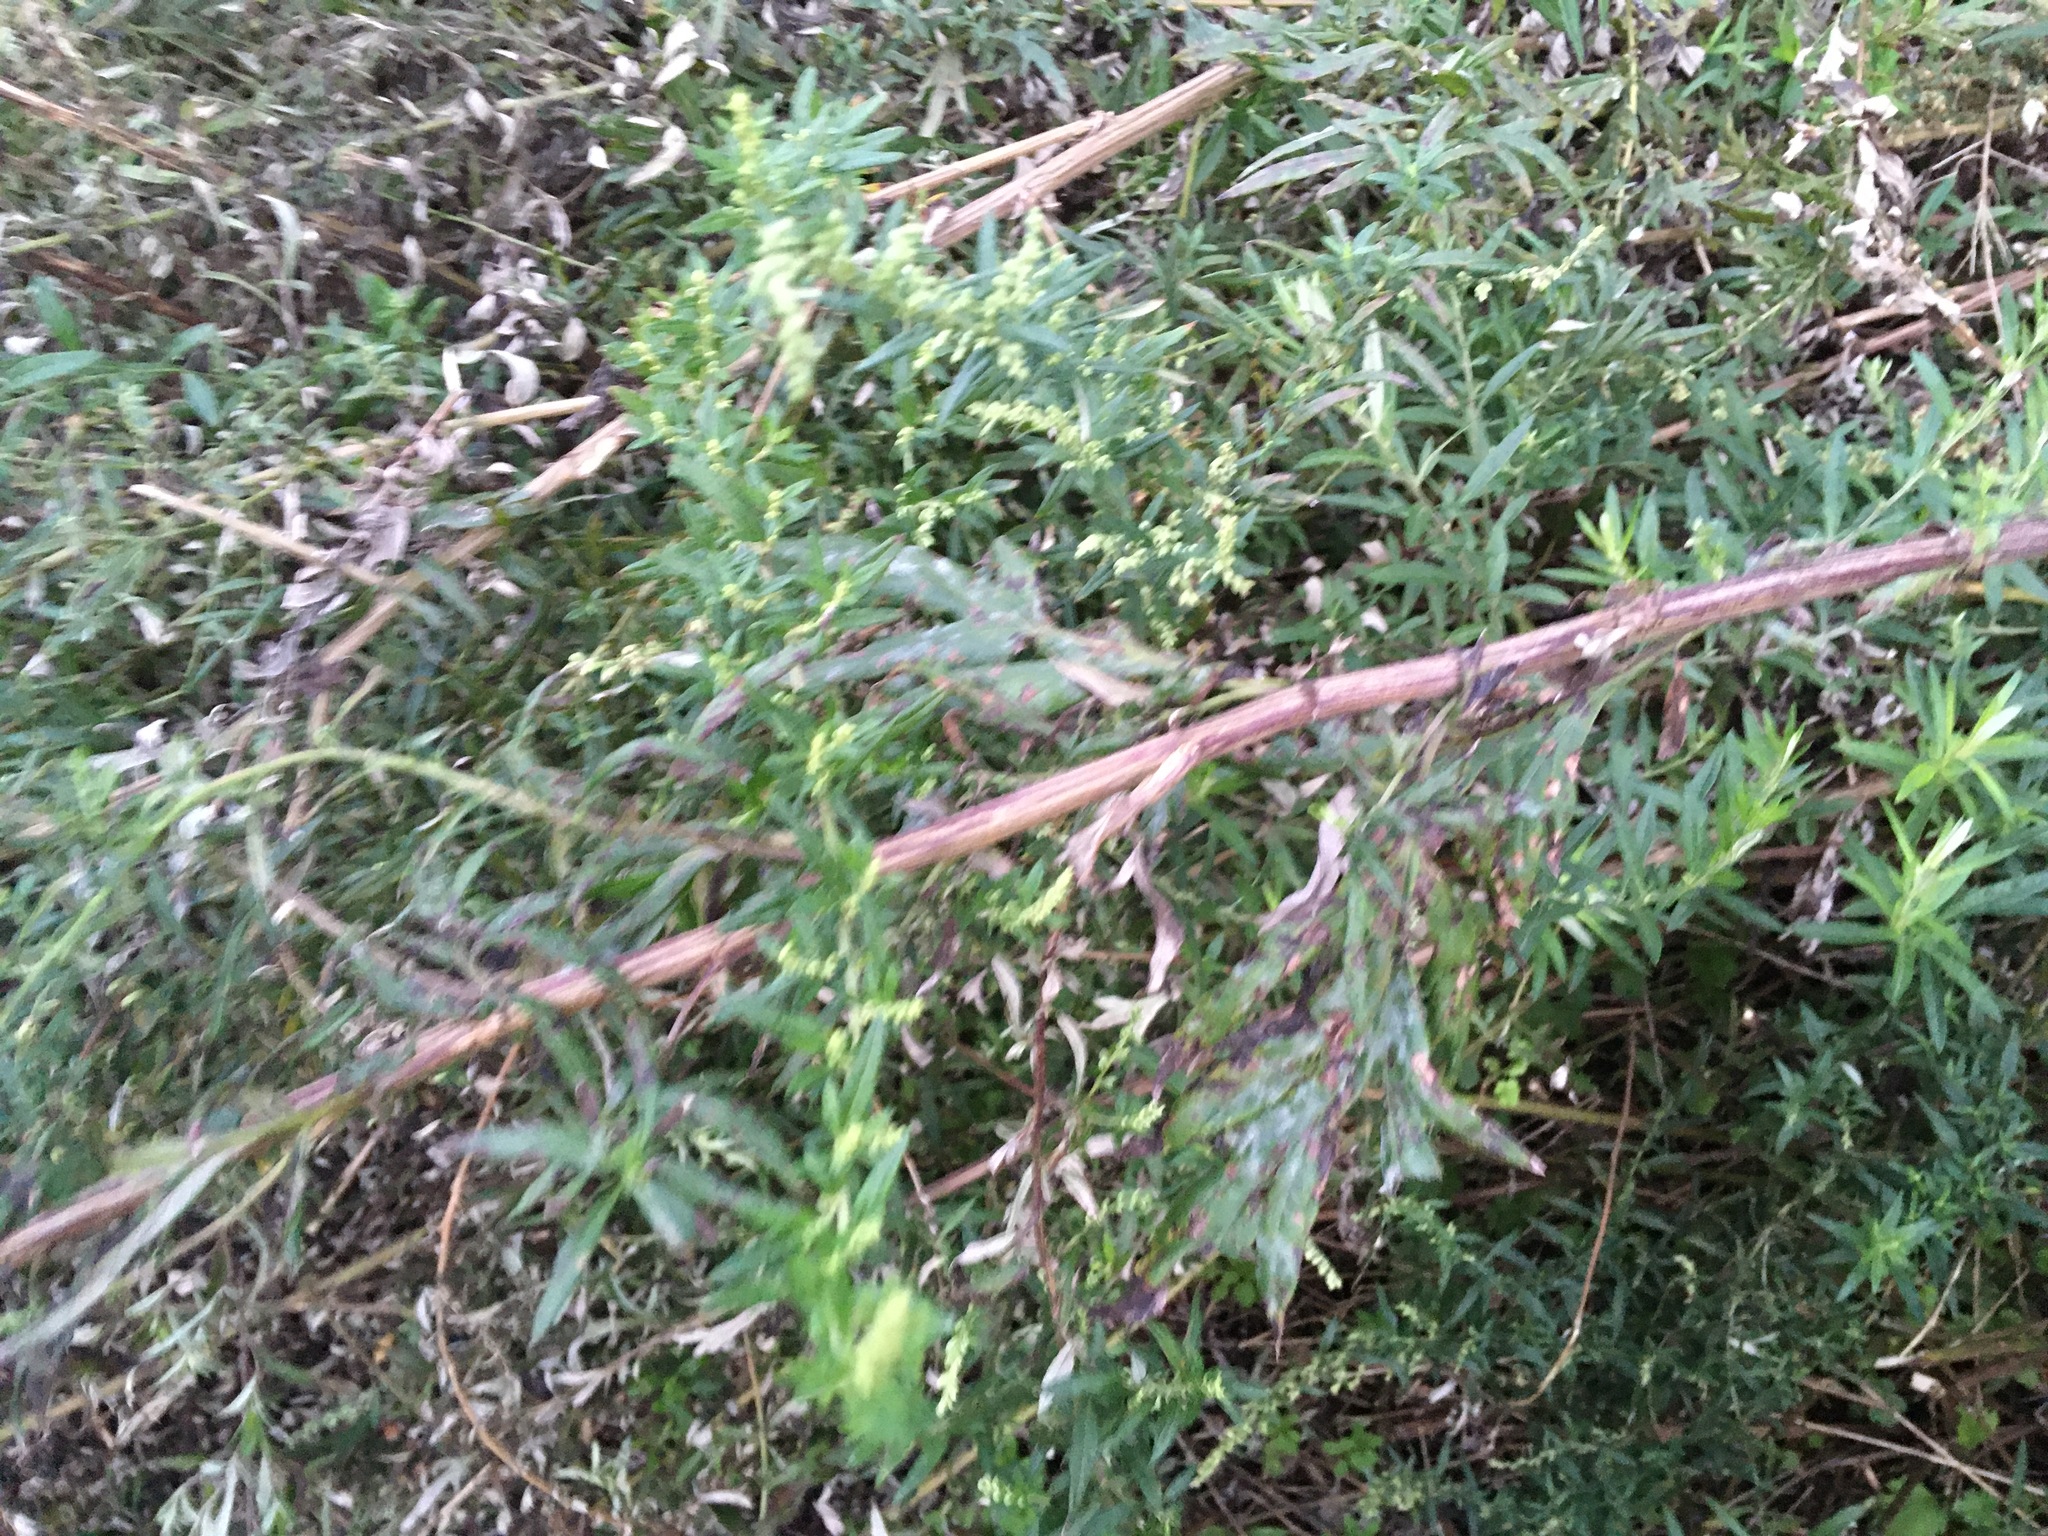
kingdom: Plantae
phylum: Tracheophyta
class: Magnoliopsida
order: Asterales
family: Asteraceae
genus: Artemisia
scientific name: Artemisia vulgaris
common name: Mugwort
